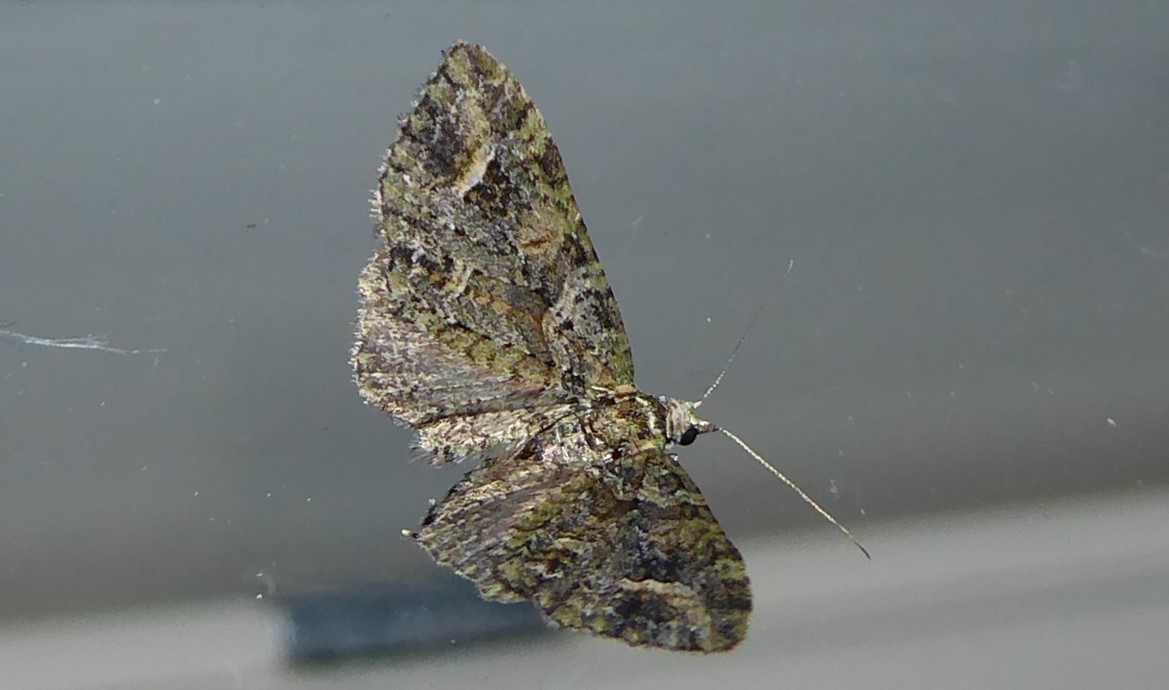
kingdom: Animalia
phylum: Arthropoda
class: Insecta
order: Lepidoptera
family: Geometridae
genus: Idaea
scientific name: Idaea mutanda
